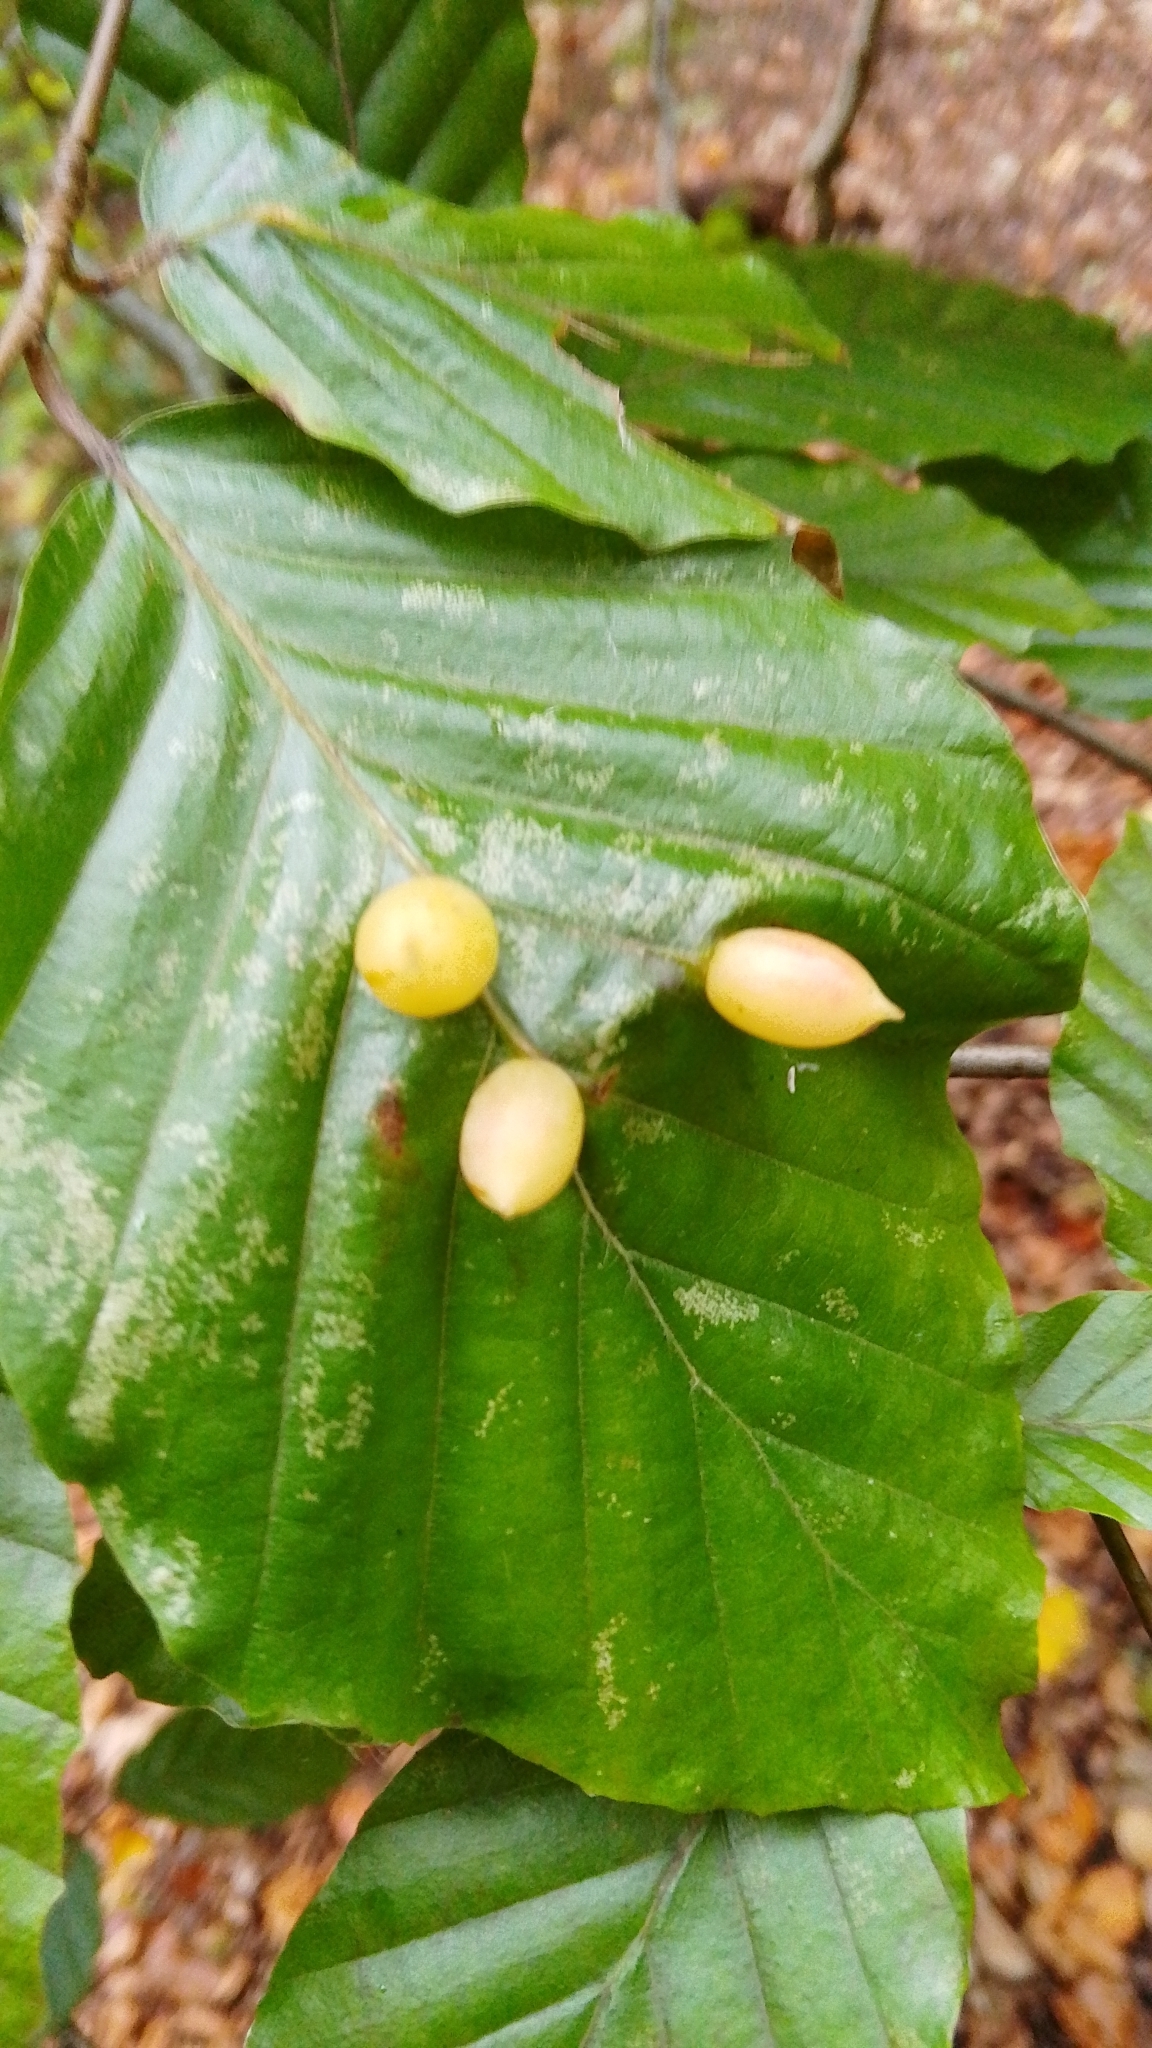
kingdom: Animalia
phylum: Arthropoda
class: Insecta
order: Diptera
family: Cecidomyiidae
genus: Mikiola
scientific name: Mikiola fagi
